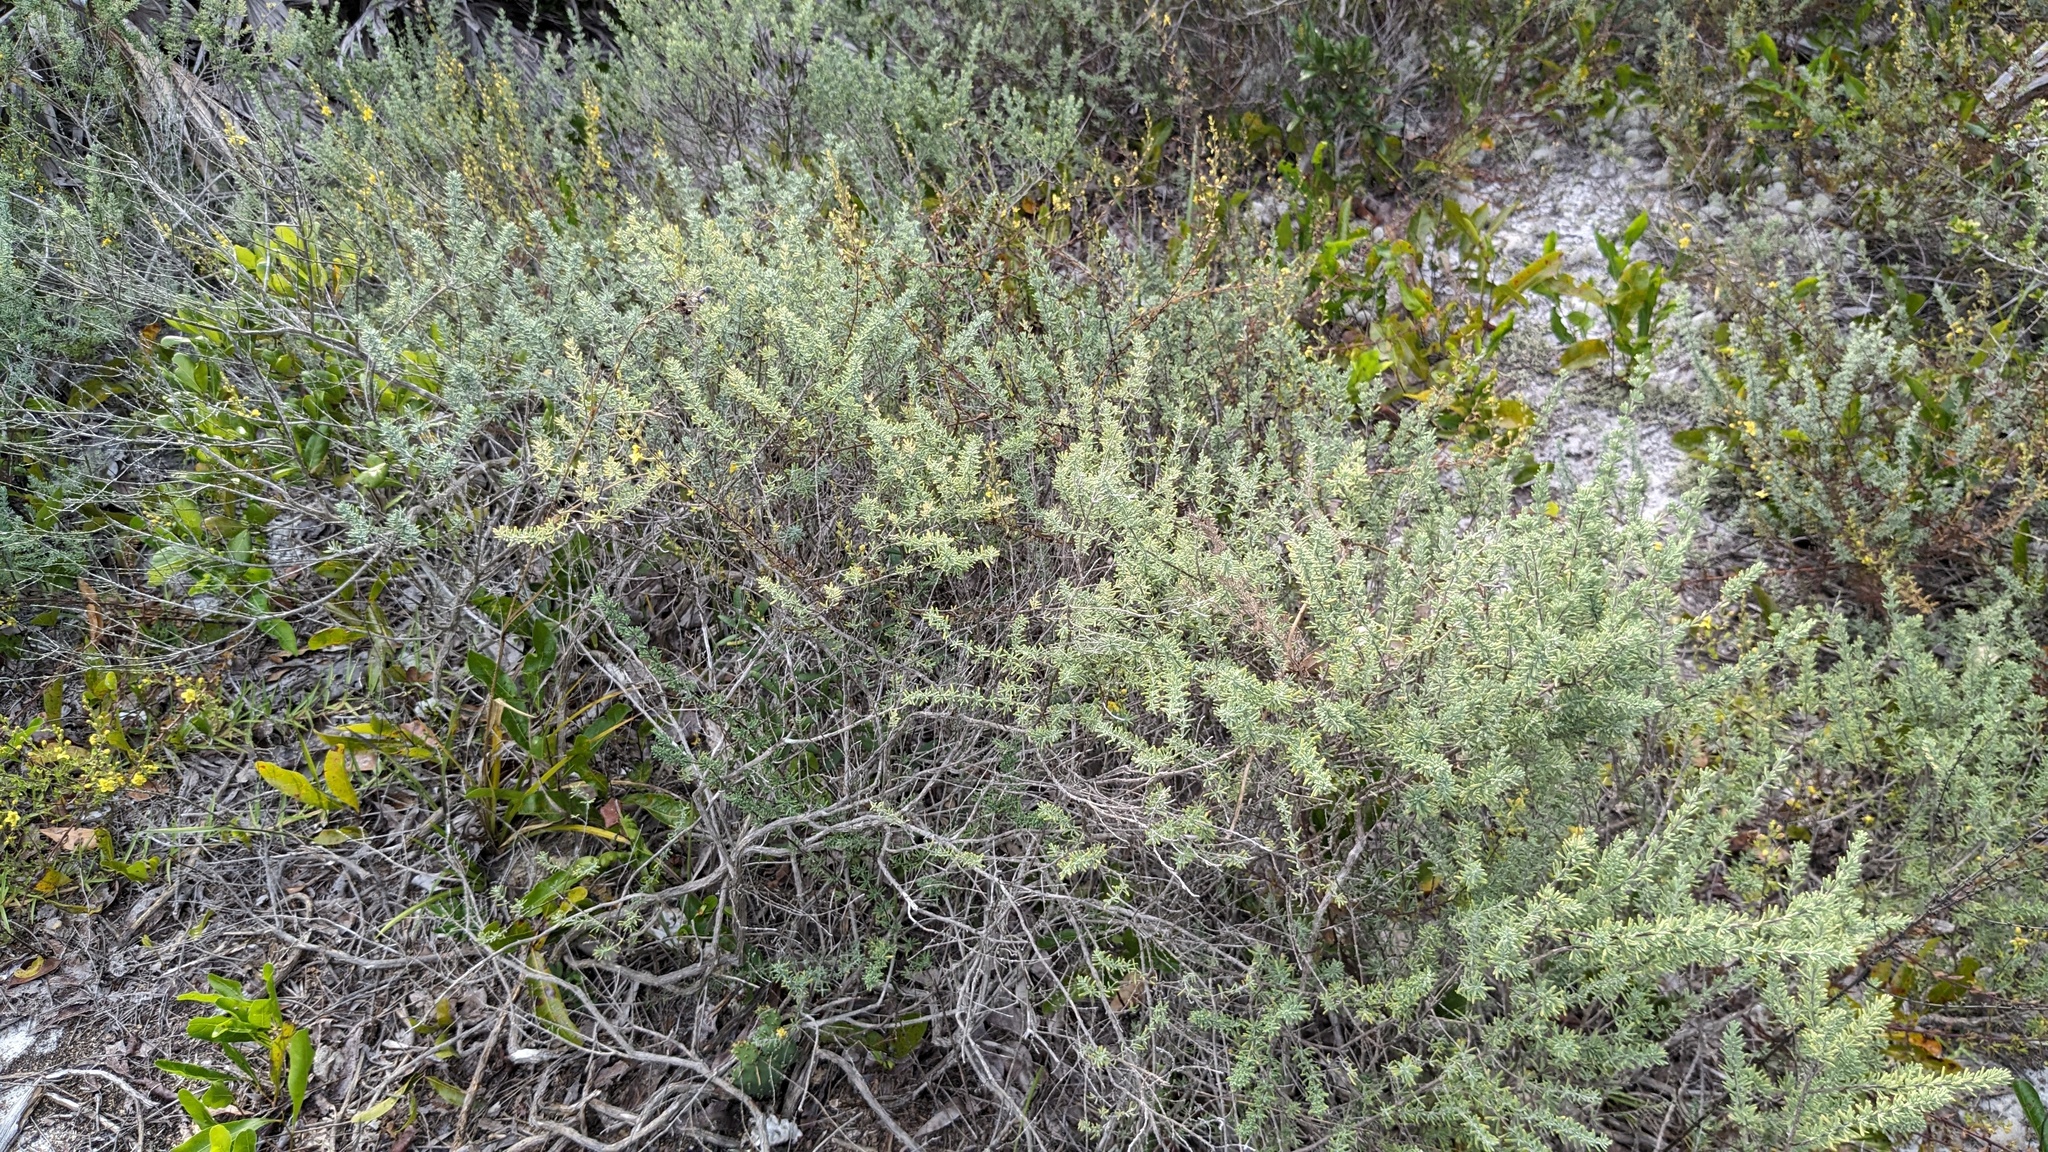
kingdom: Plantae
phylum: Tracheophyta
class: Magnoliopsida
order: Lamiales
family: Lamiaceae
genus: Conradina
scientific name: Conradina canescens
